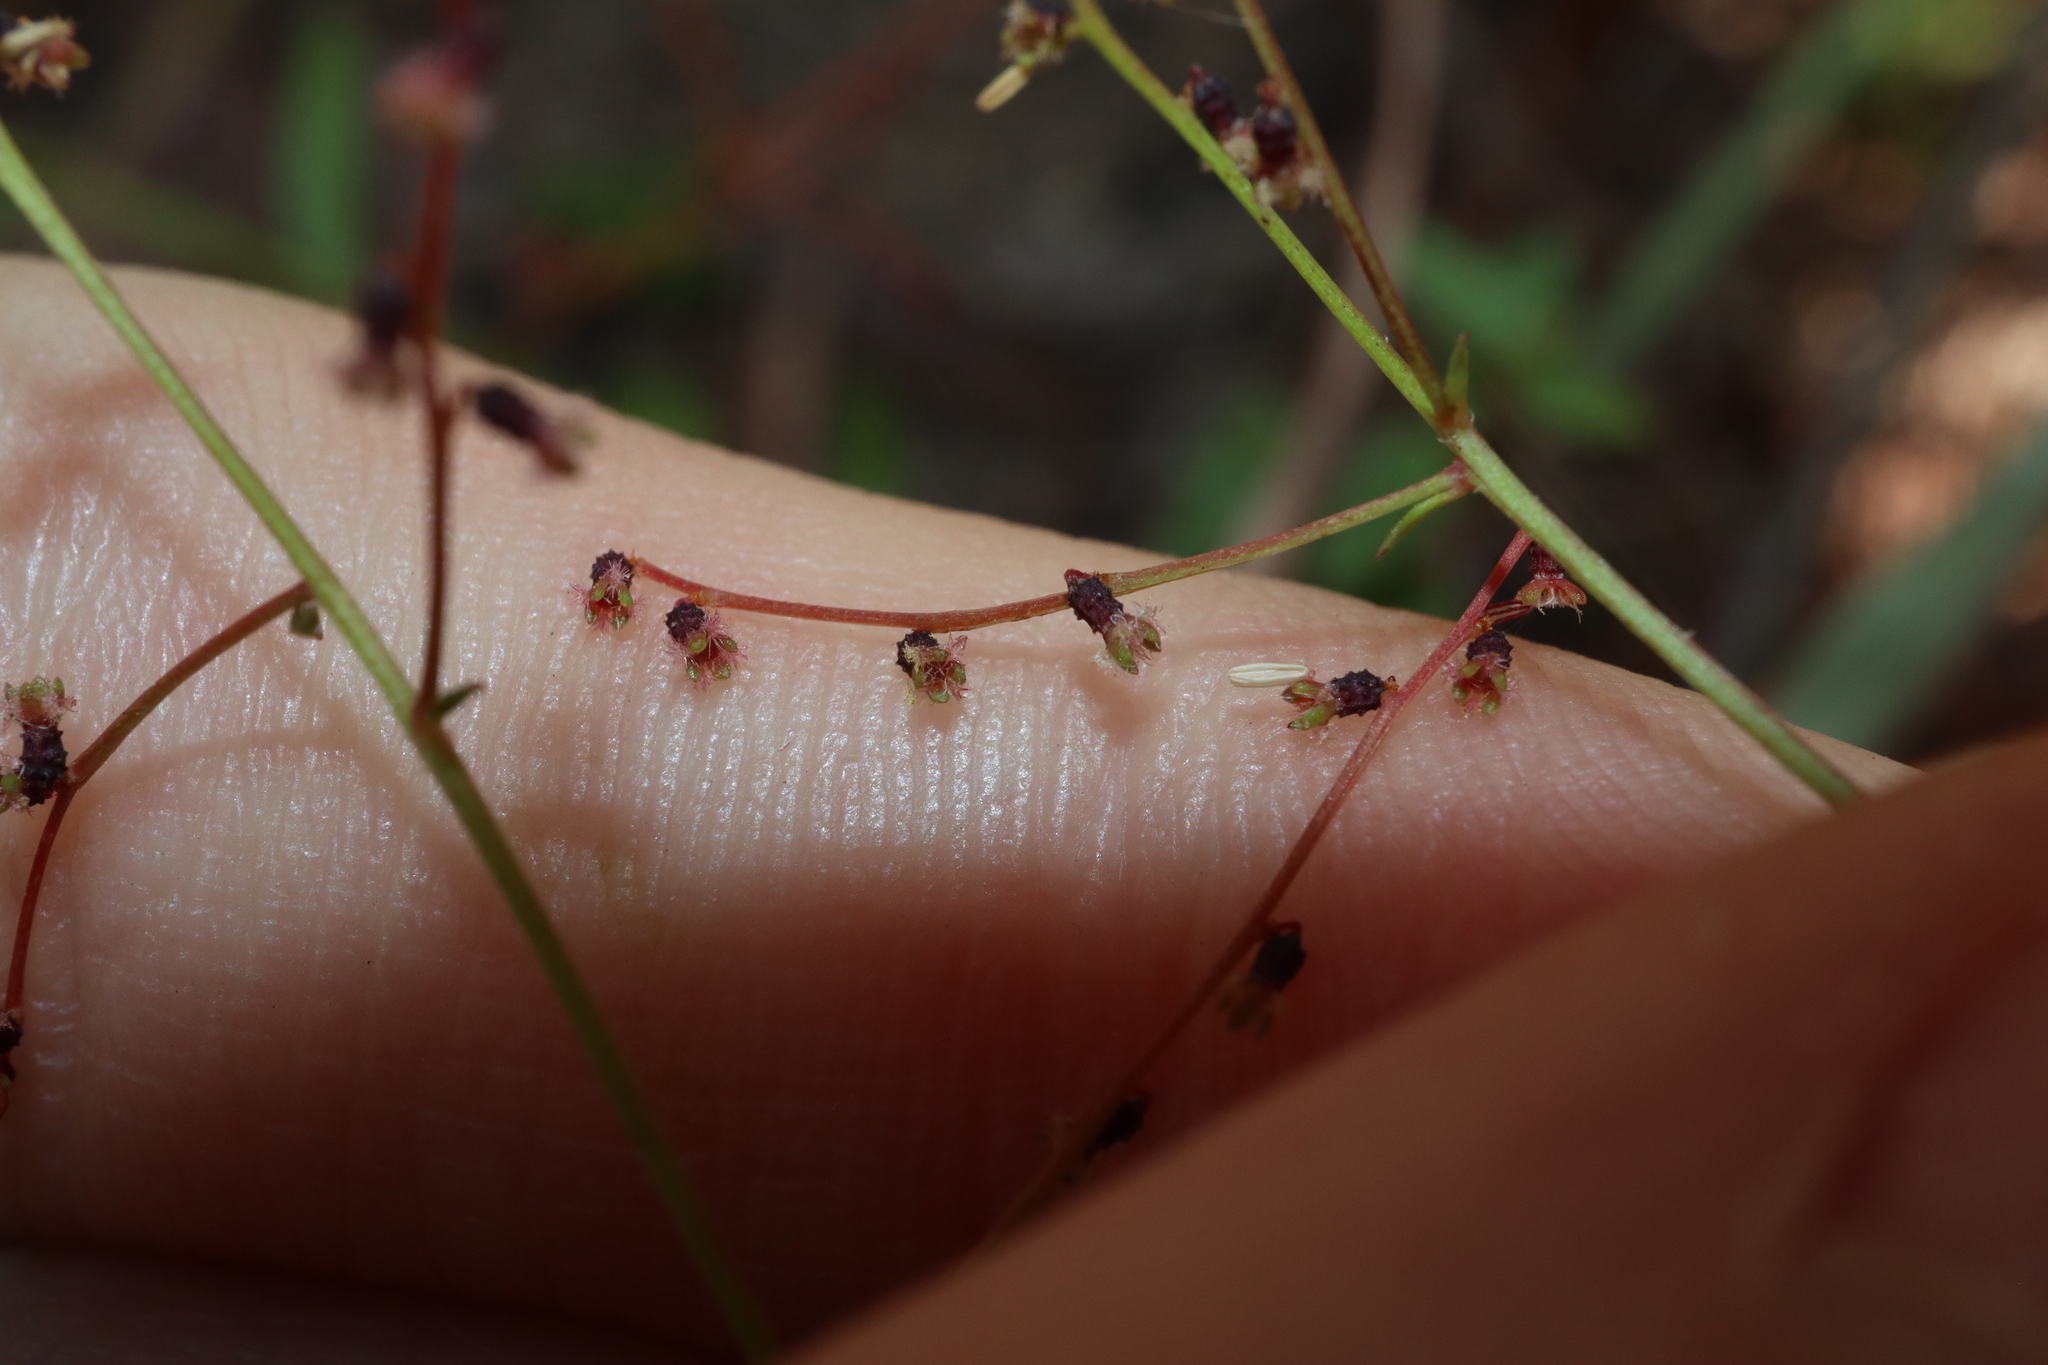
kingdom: Plantae
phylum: Tracheophyta
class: Magnoliopsida
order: Saxifragales
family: Haloragaceae
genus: Gonocarpus
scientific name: Gonocarpus acanthocarpus
